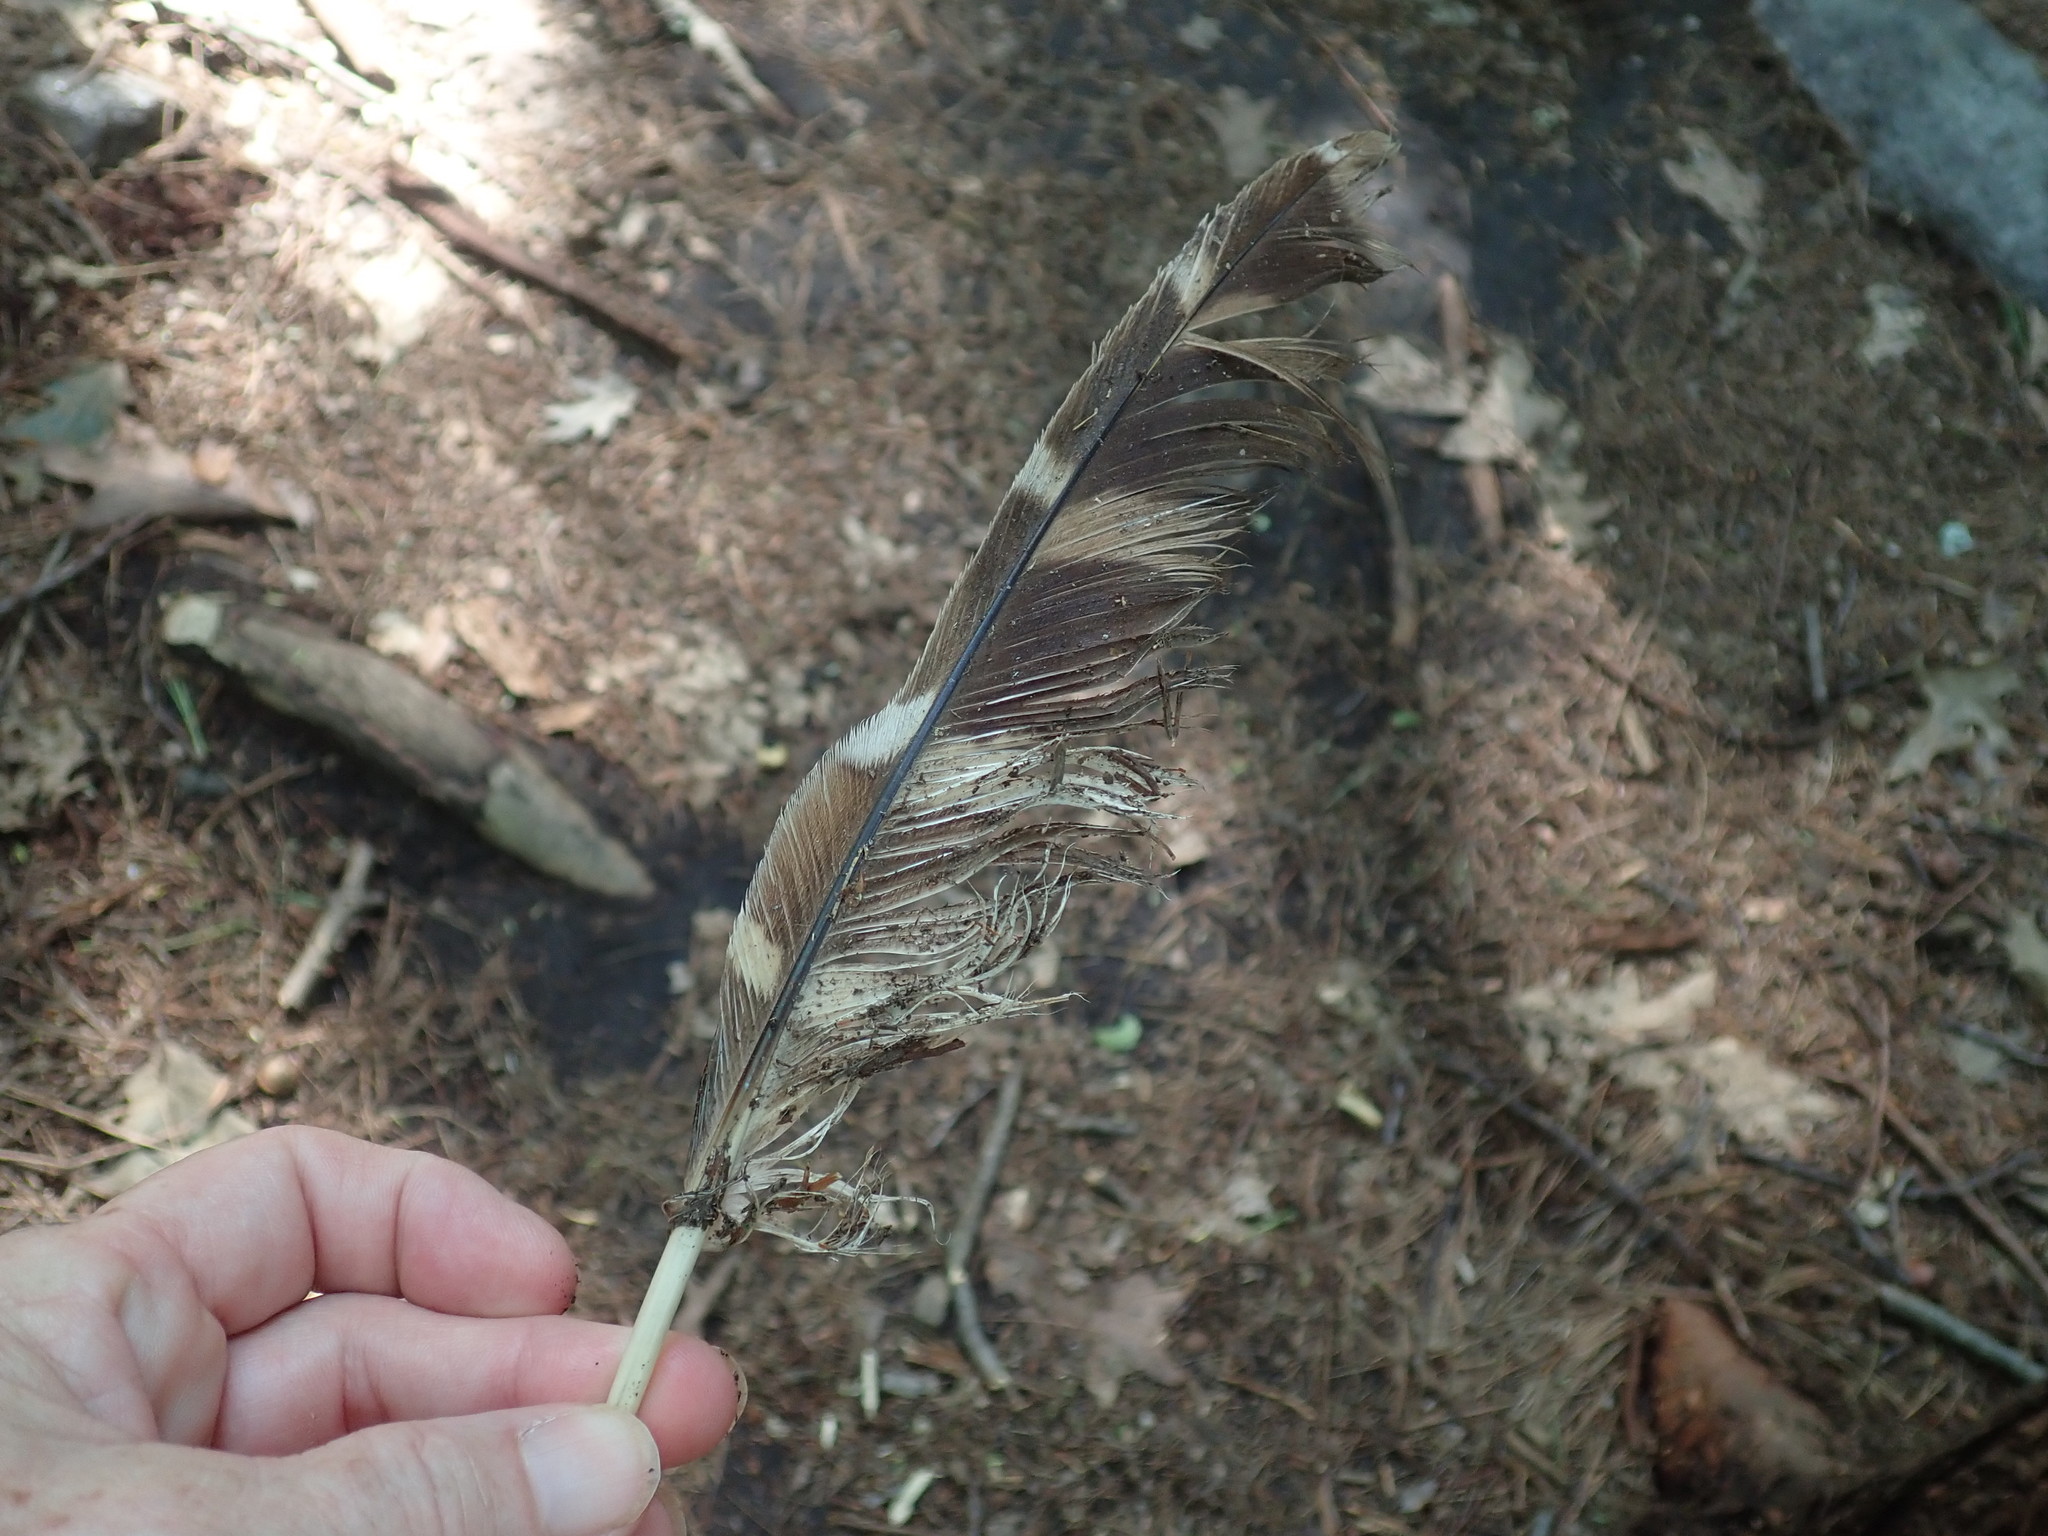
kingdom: Animalia
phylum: Chordata
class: Aves
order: Strigiformes
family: Strigidae
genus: Strix
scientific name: Strix varia
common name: Barred owl
